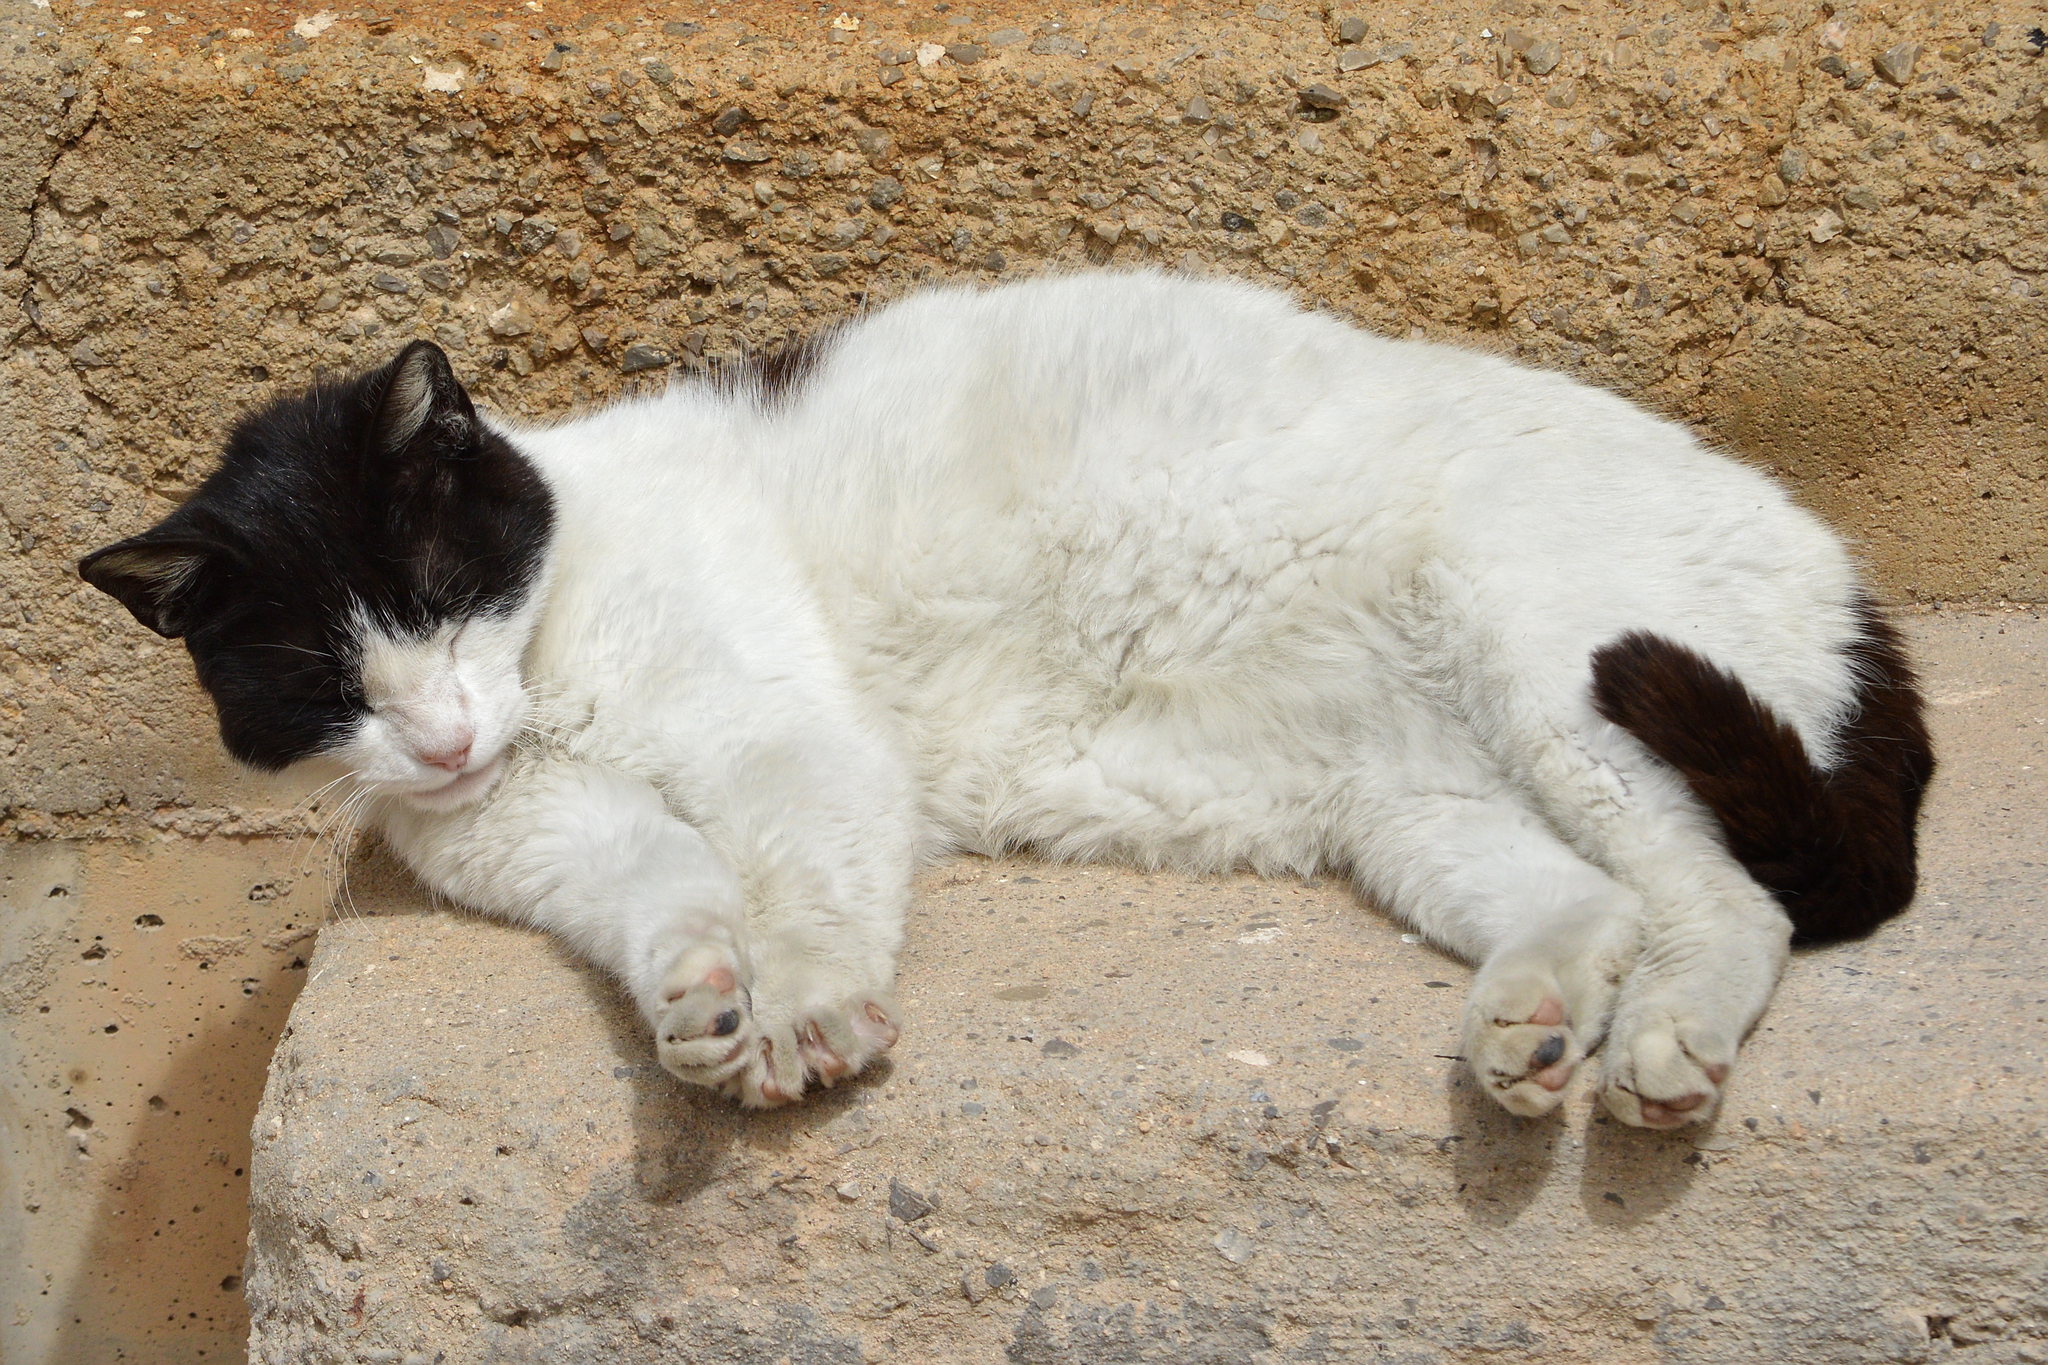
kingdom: Animalia
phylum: Chordata
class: Mammalia
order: Carnivora
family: Felidae
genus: Felis
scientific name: Felis catus
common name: Domestic cat
